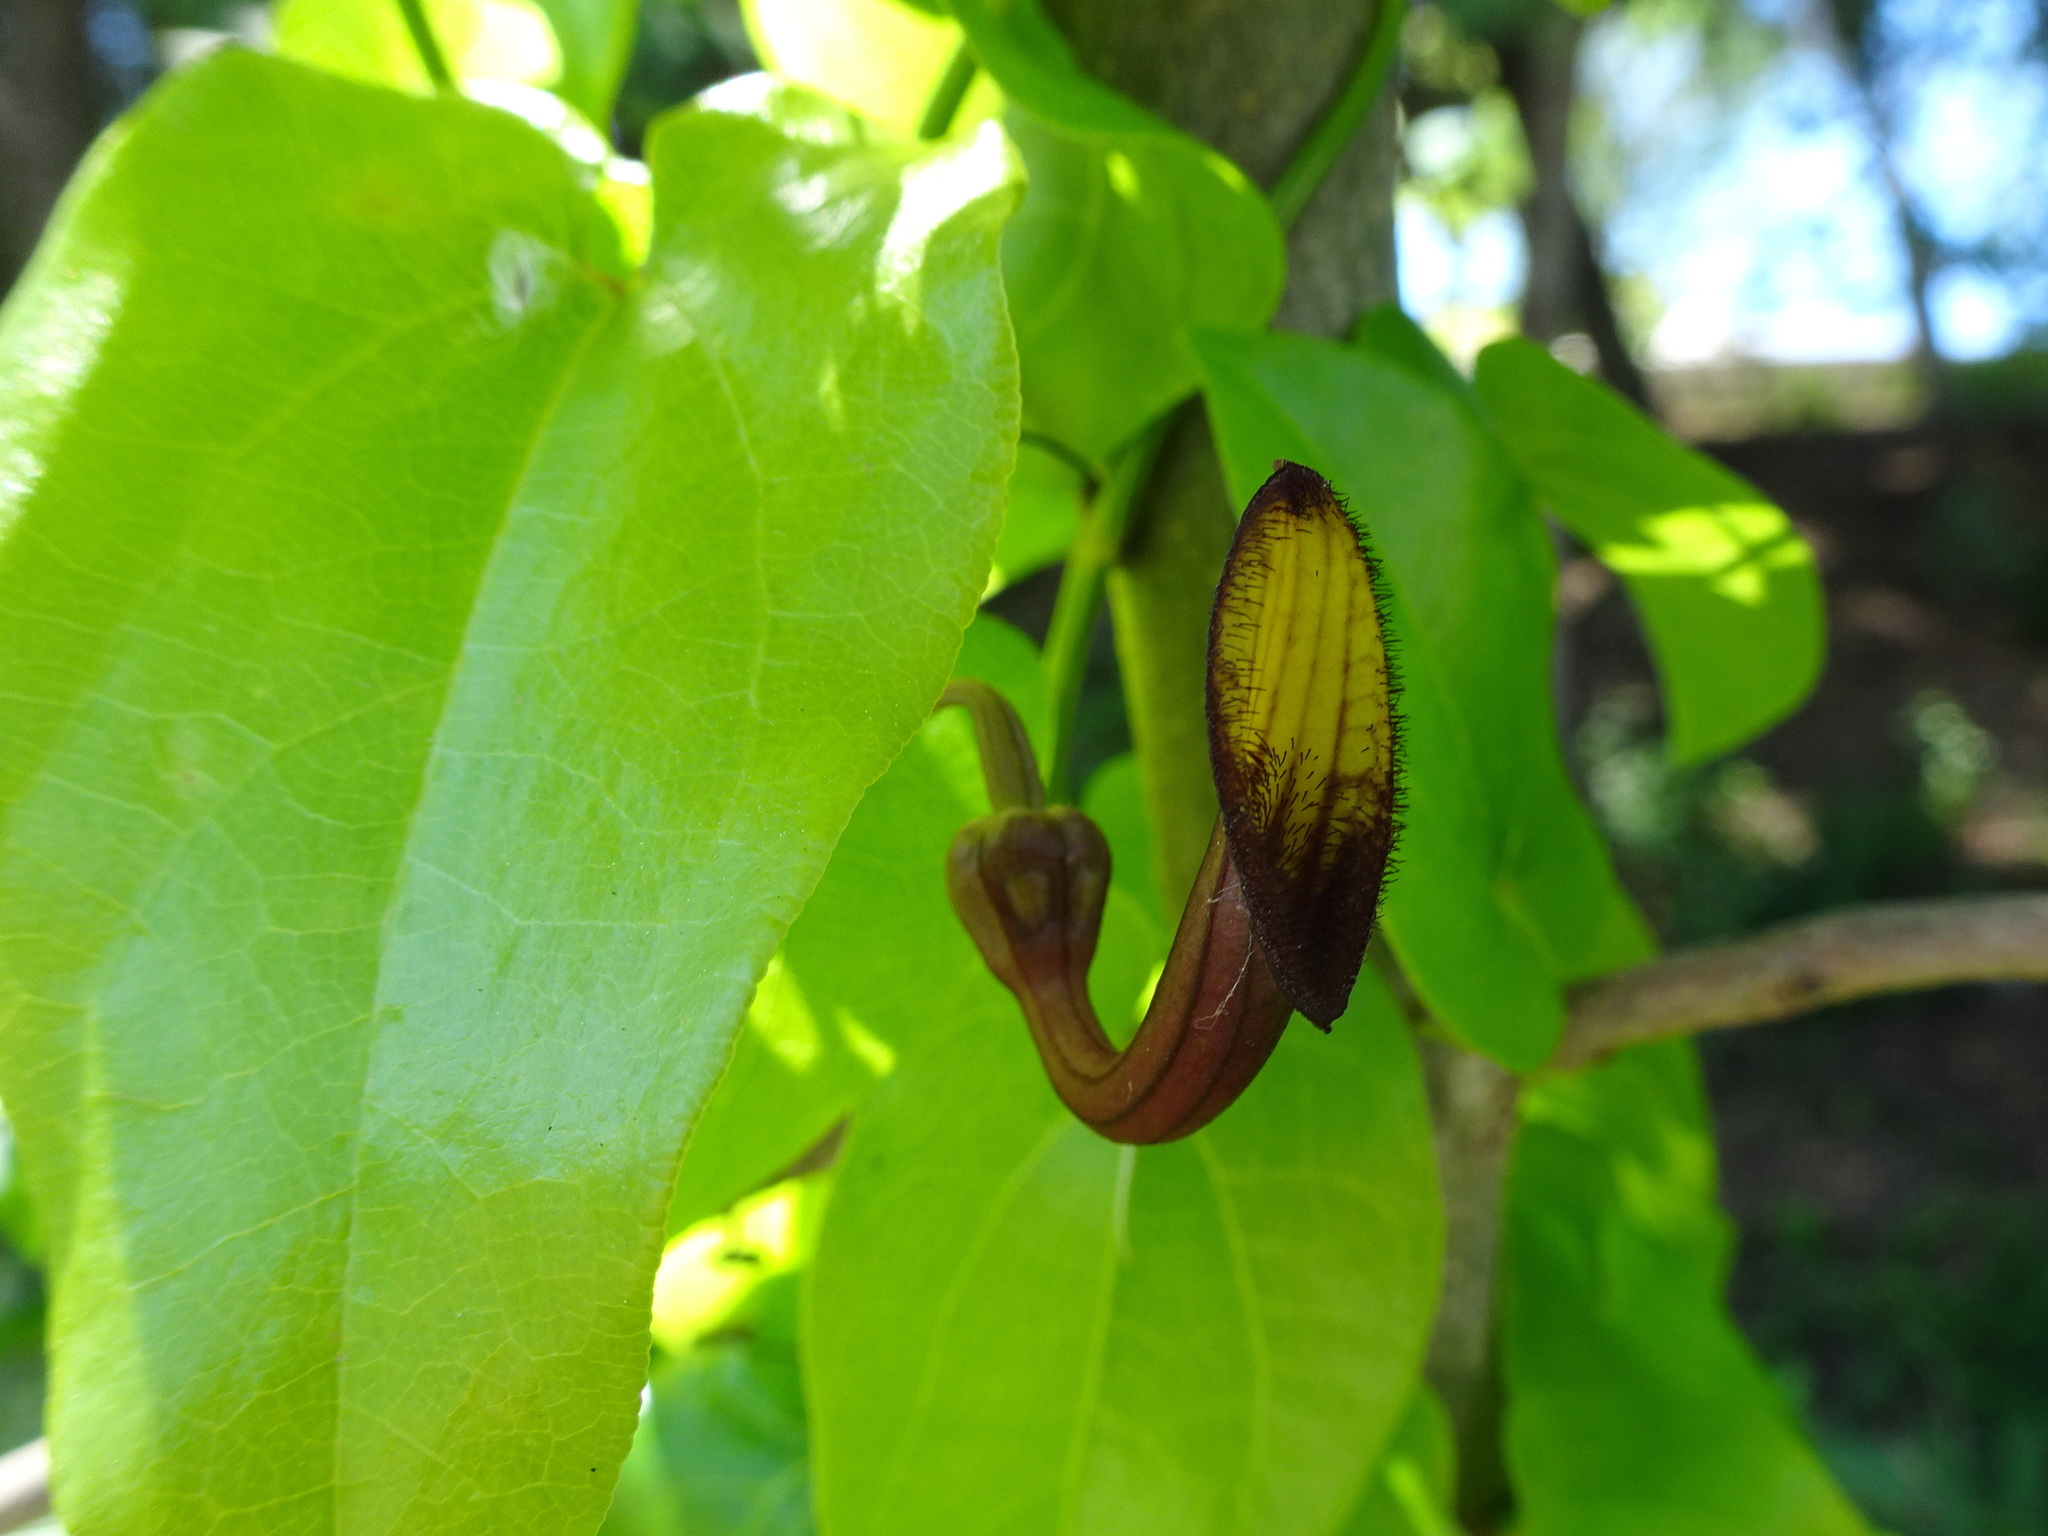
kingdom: Plantae
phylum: Tracheophyta
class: Magnoliopsida
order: Piperales
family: Aristolochiaceae
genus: Aristolochia
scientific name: Aristolochia sempervirens
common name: Long birthwort
